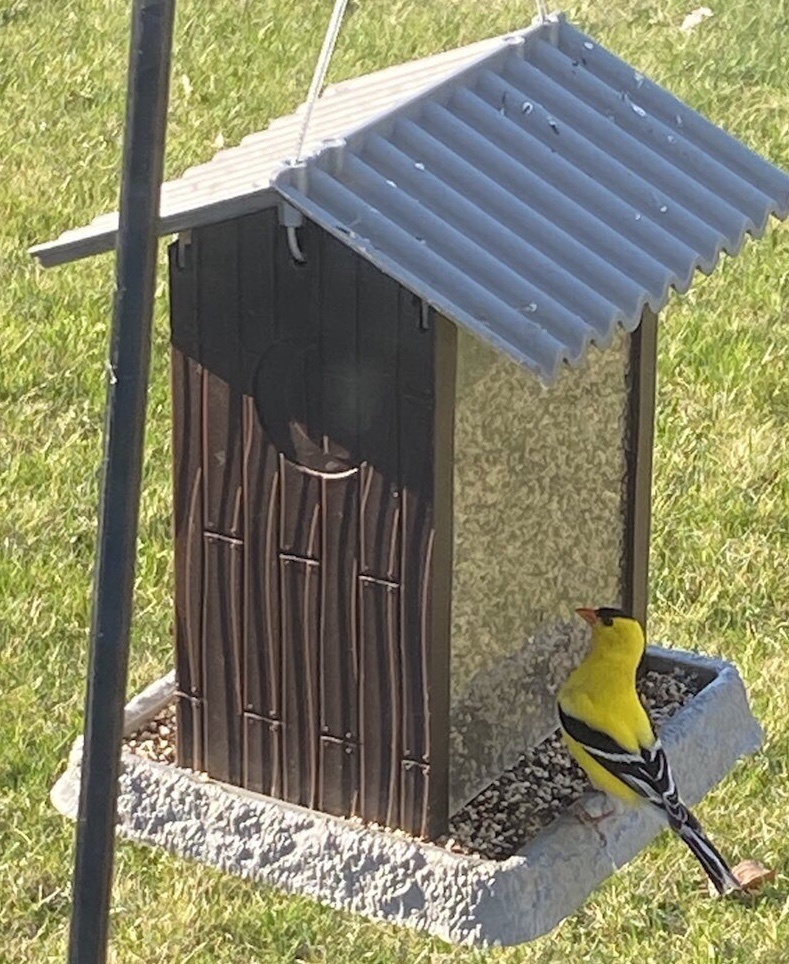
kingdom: Animalia
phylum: Chordata
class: Aves
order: Passeriformes
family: Fringillidae
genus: Spinus
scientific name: Spinus tristis
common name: American goldfinch
